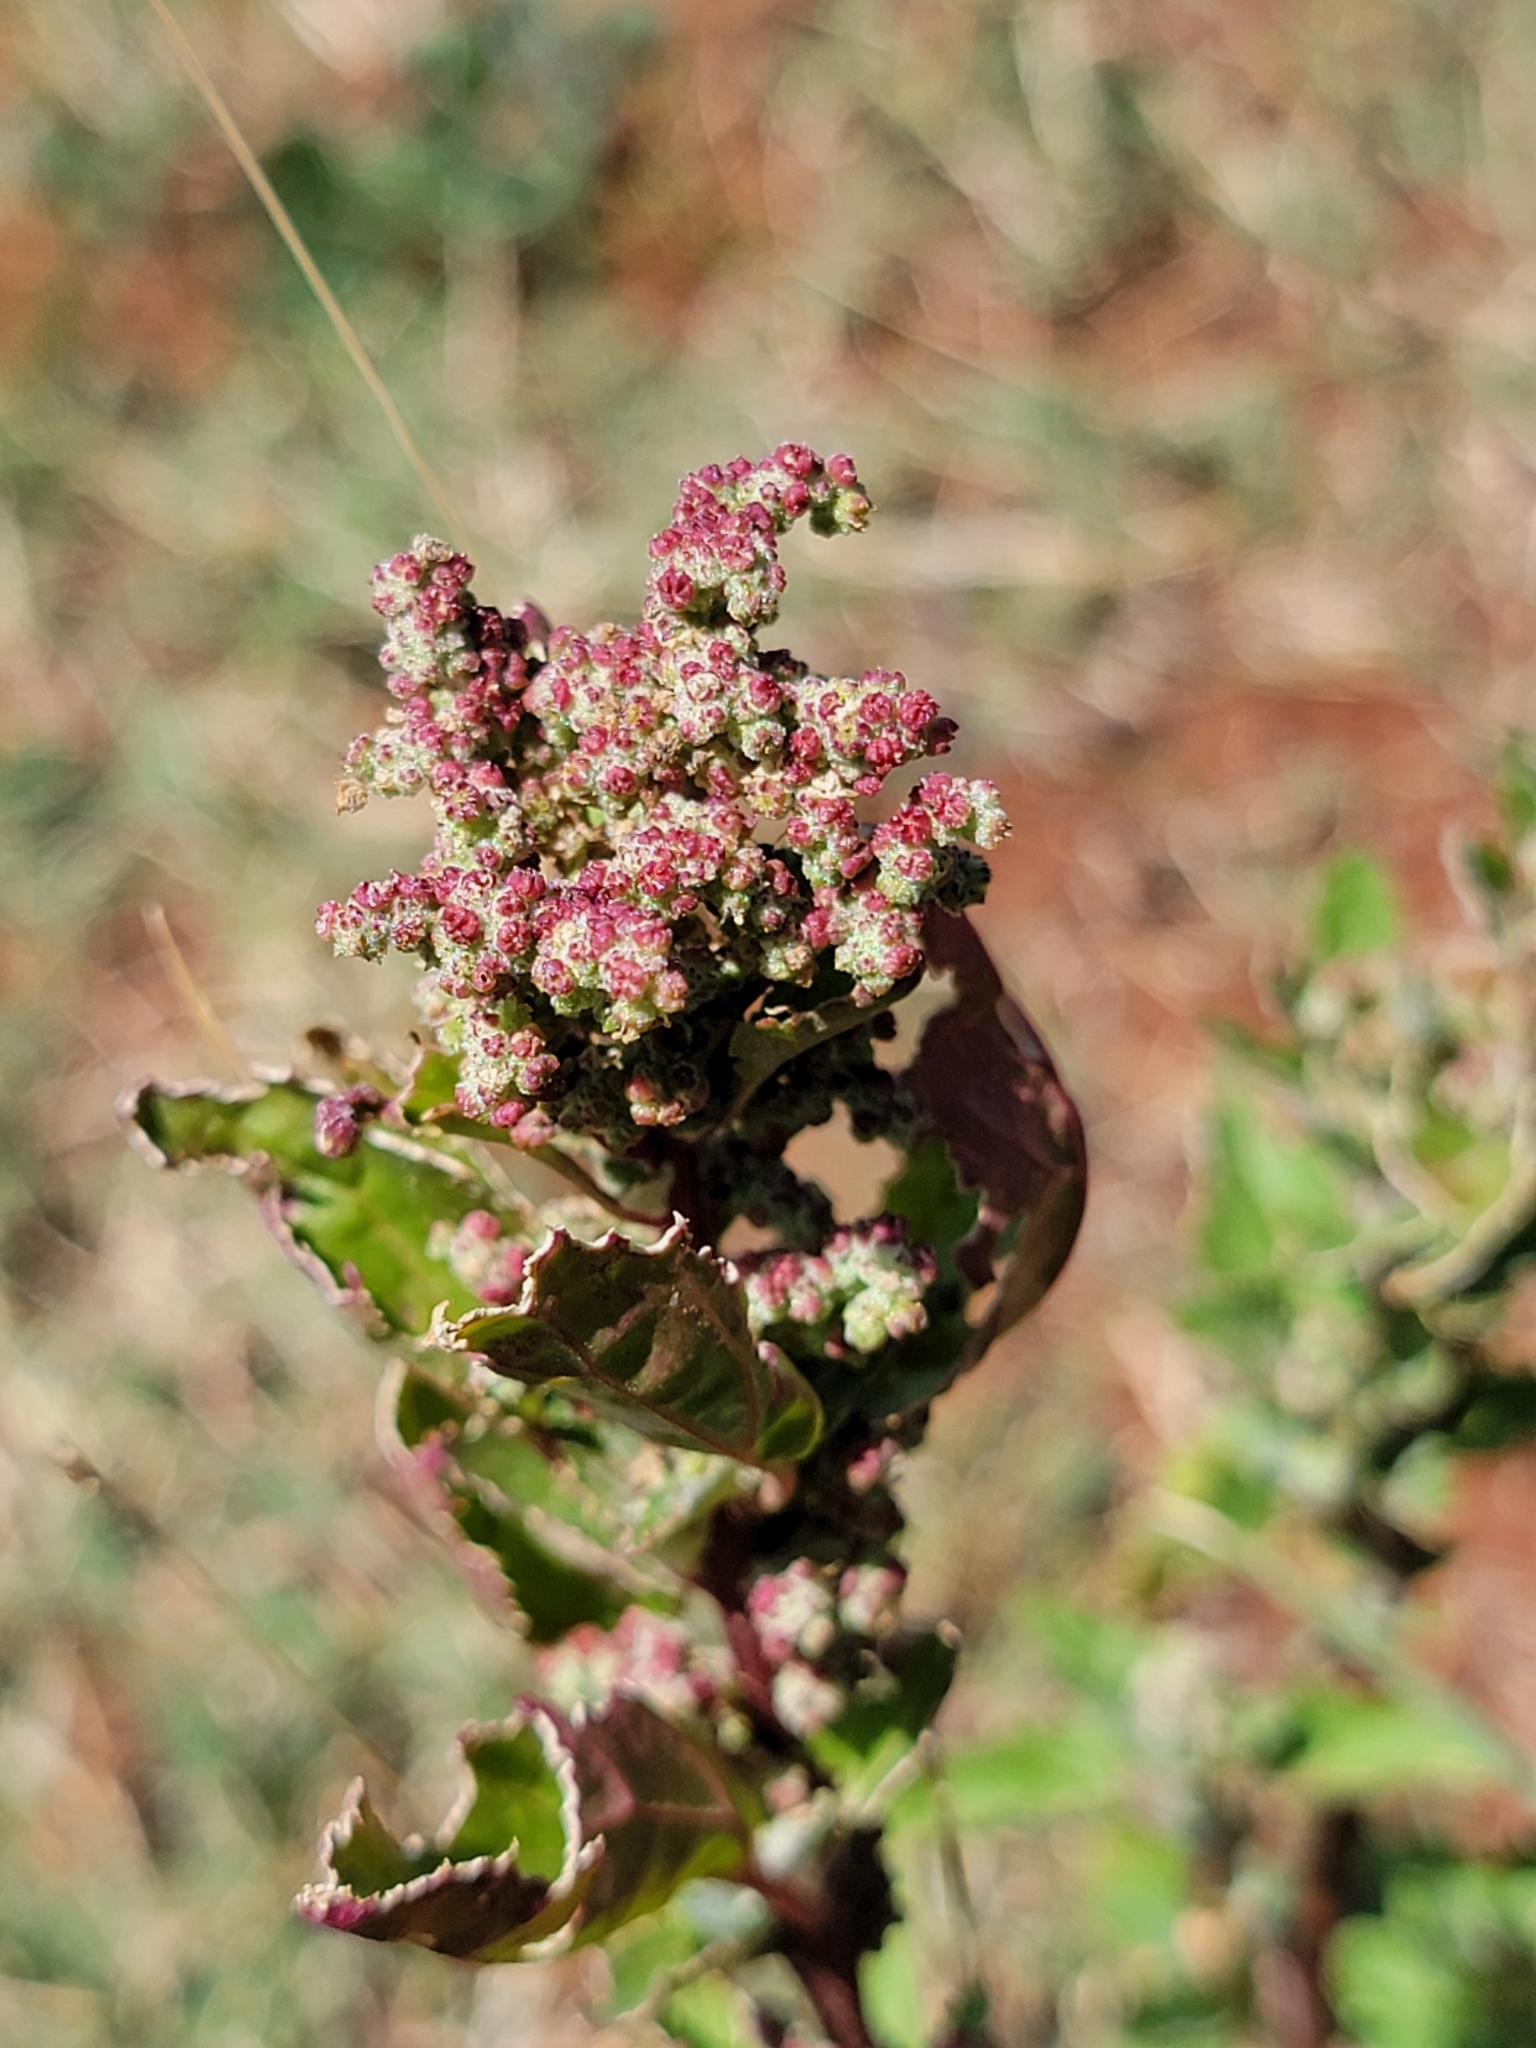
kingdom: Plantae
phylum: Tracheophyta
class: Magnoliopsida
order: Caryophyllales
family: Amaranthaceae
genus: Chenopodiastrum
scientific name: Chenopodiastrum murale
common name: Sowbane
